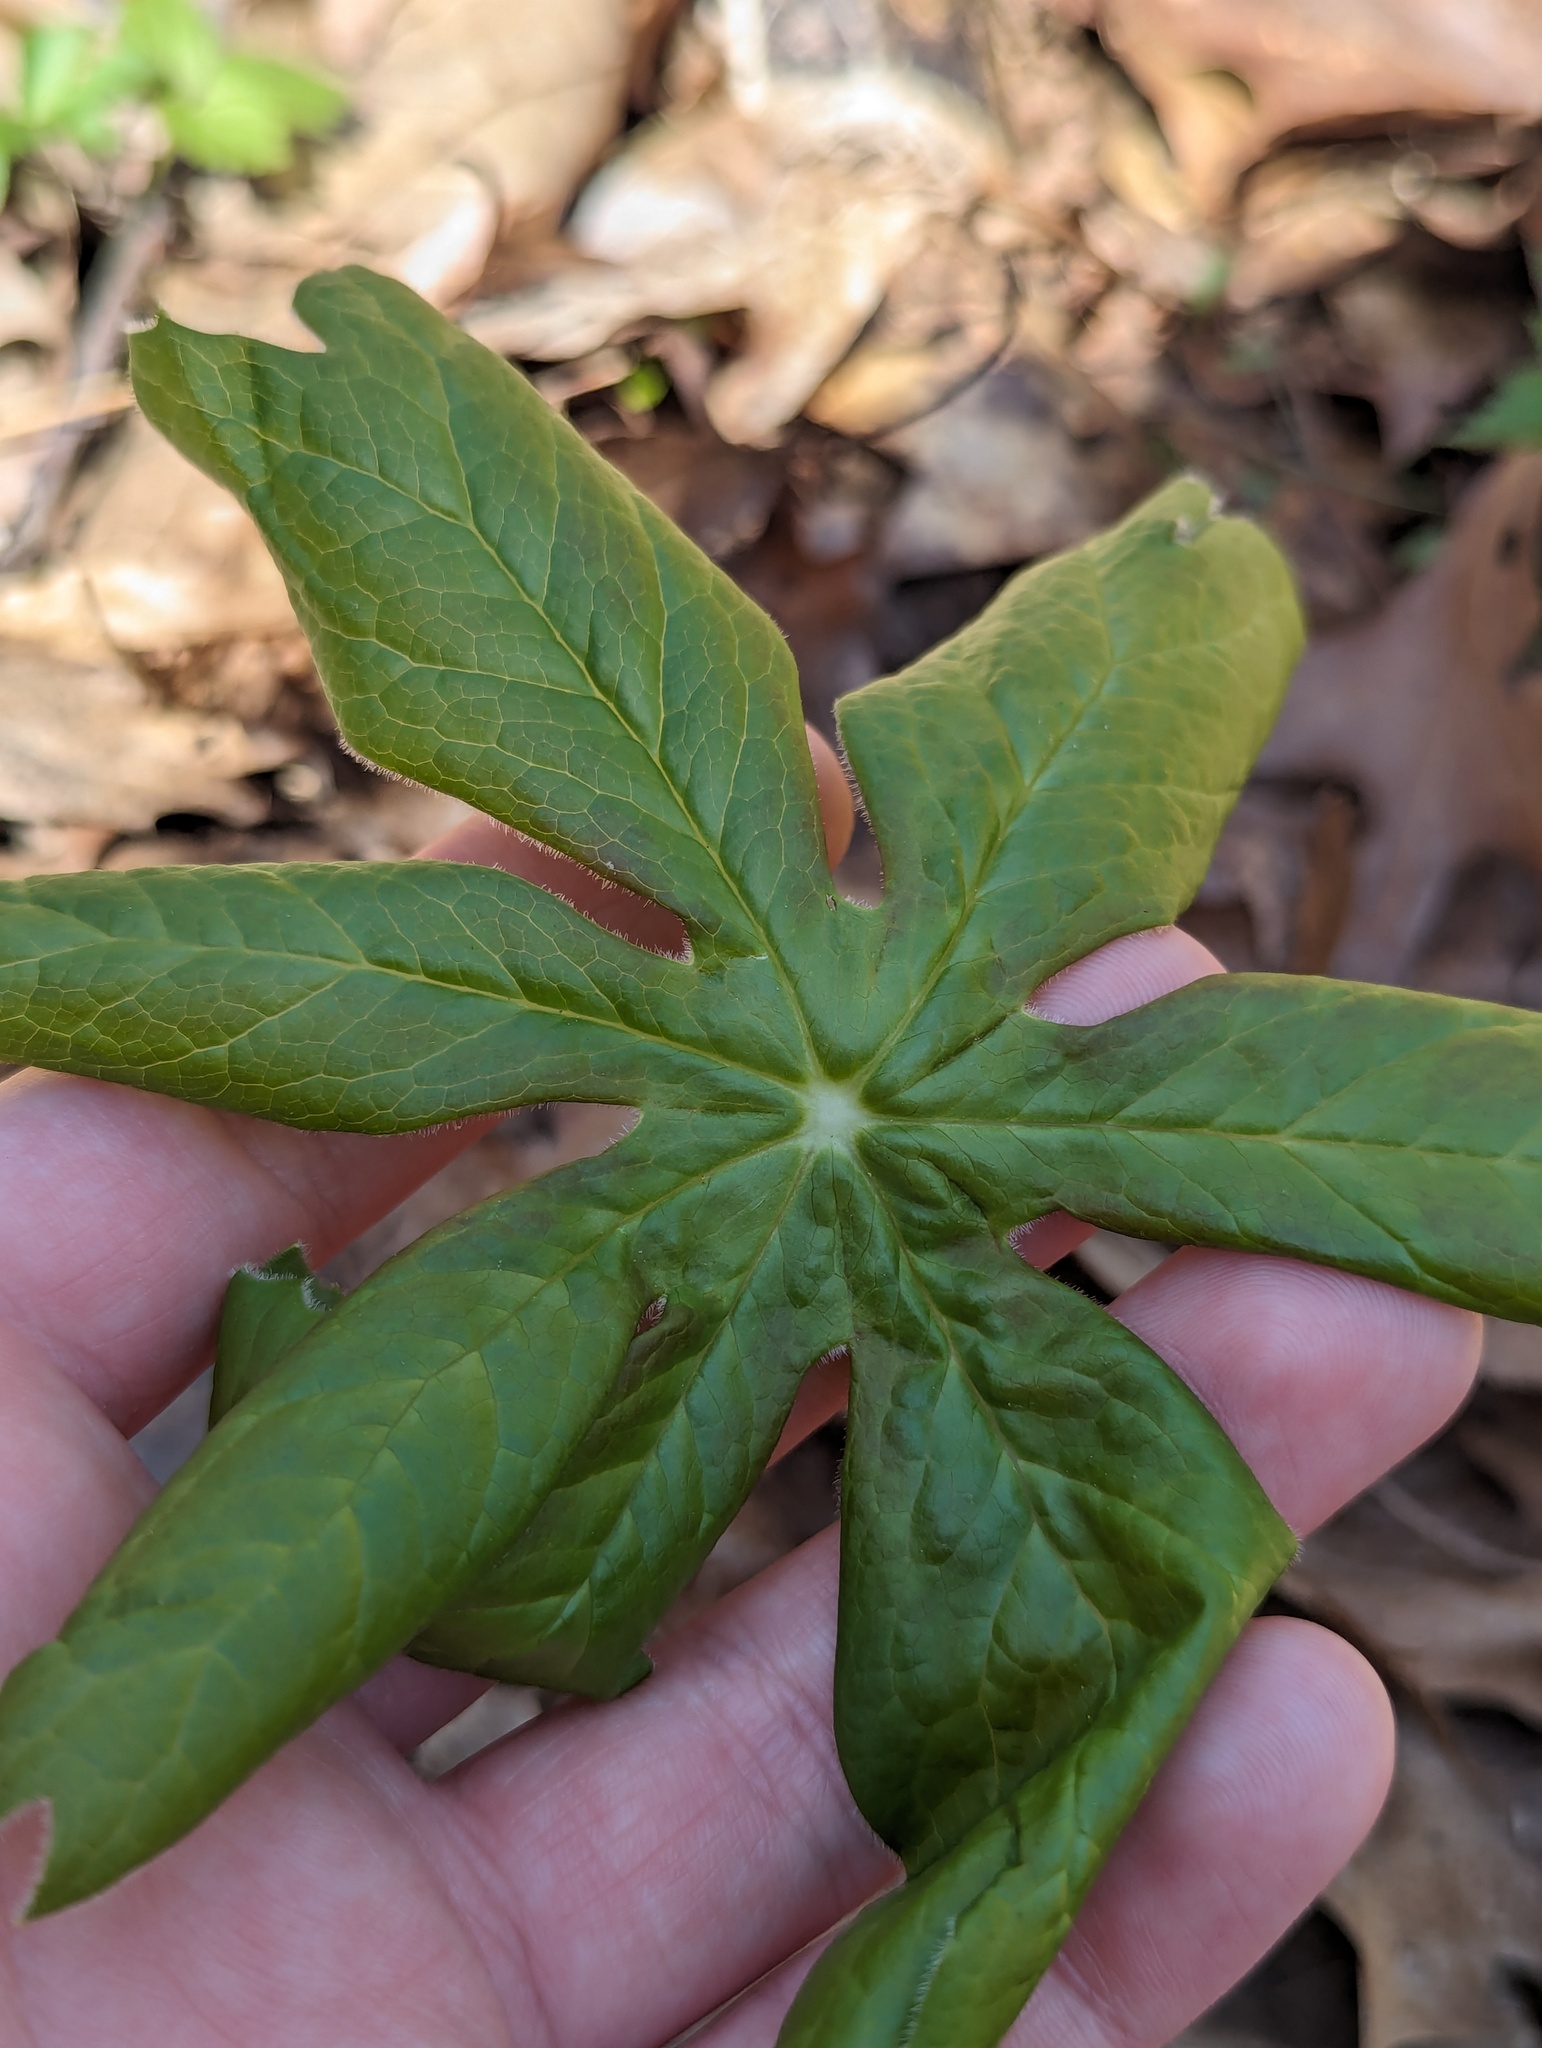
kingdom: Plantae
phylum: Tracheophyta
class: Magnoliopsida
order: Ranunculales
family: Berberidaceae
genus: Podophyllum
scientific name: Podophyllum peltatum
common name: Wild mandrake
